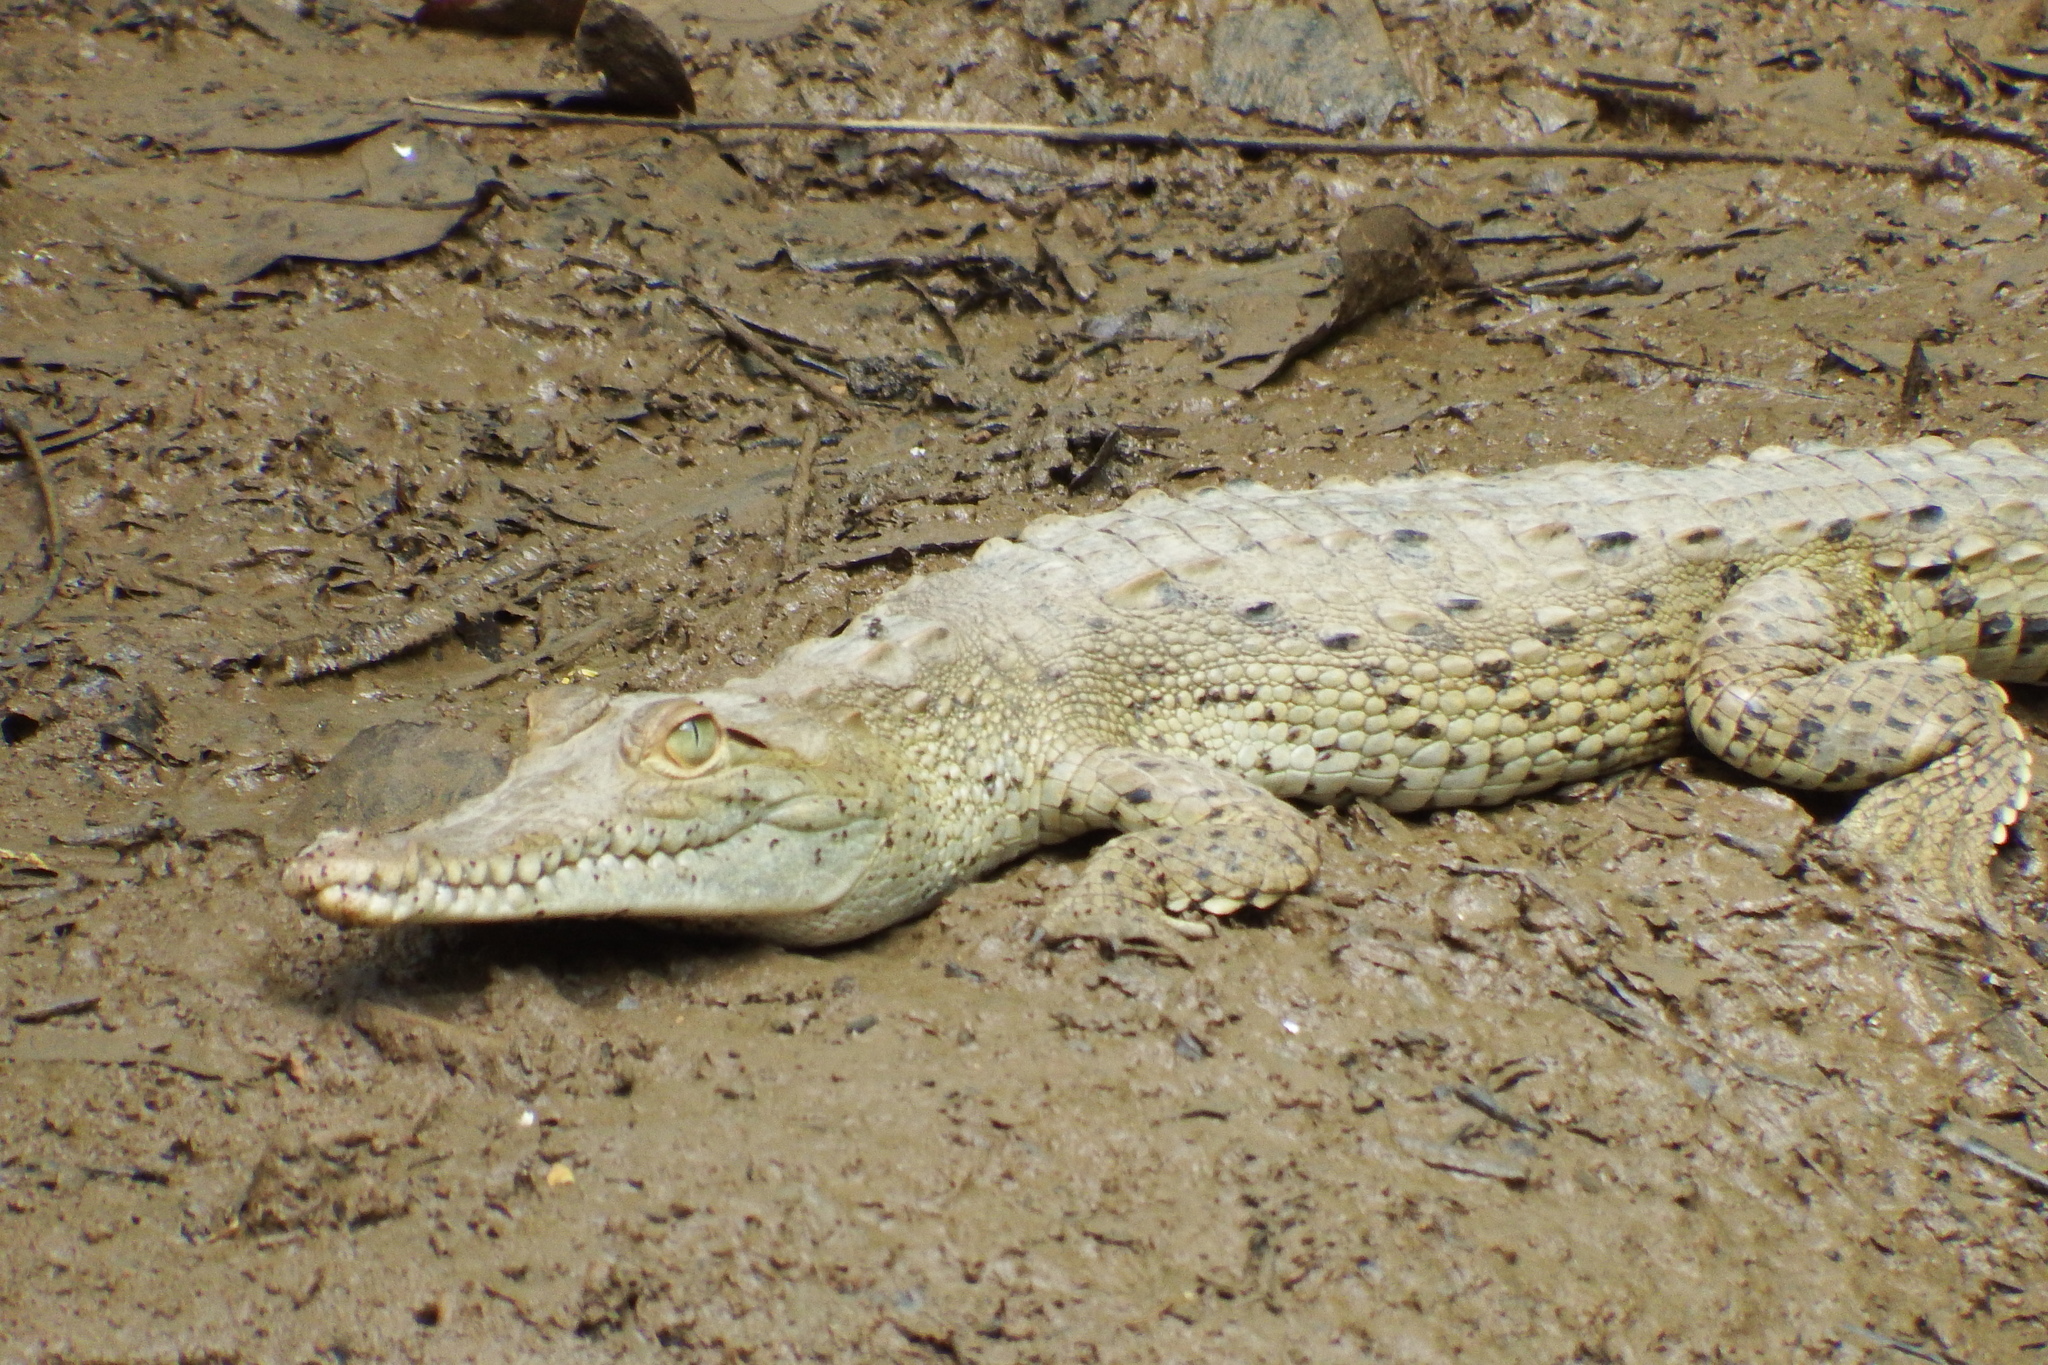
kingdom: Animalia
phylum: Chordata
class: Crocodylia
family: Crocodylidae
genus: Crocodylus
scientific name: Crocodylus acutus
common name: American crocodile
